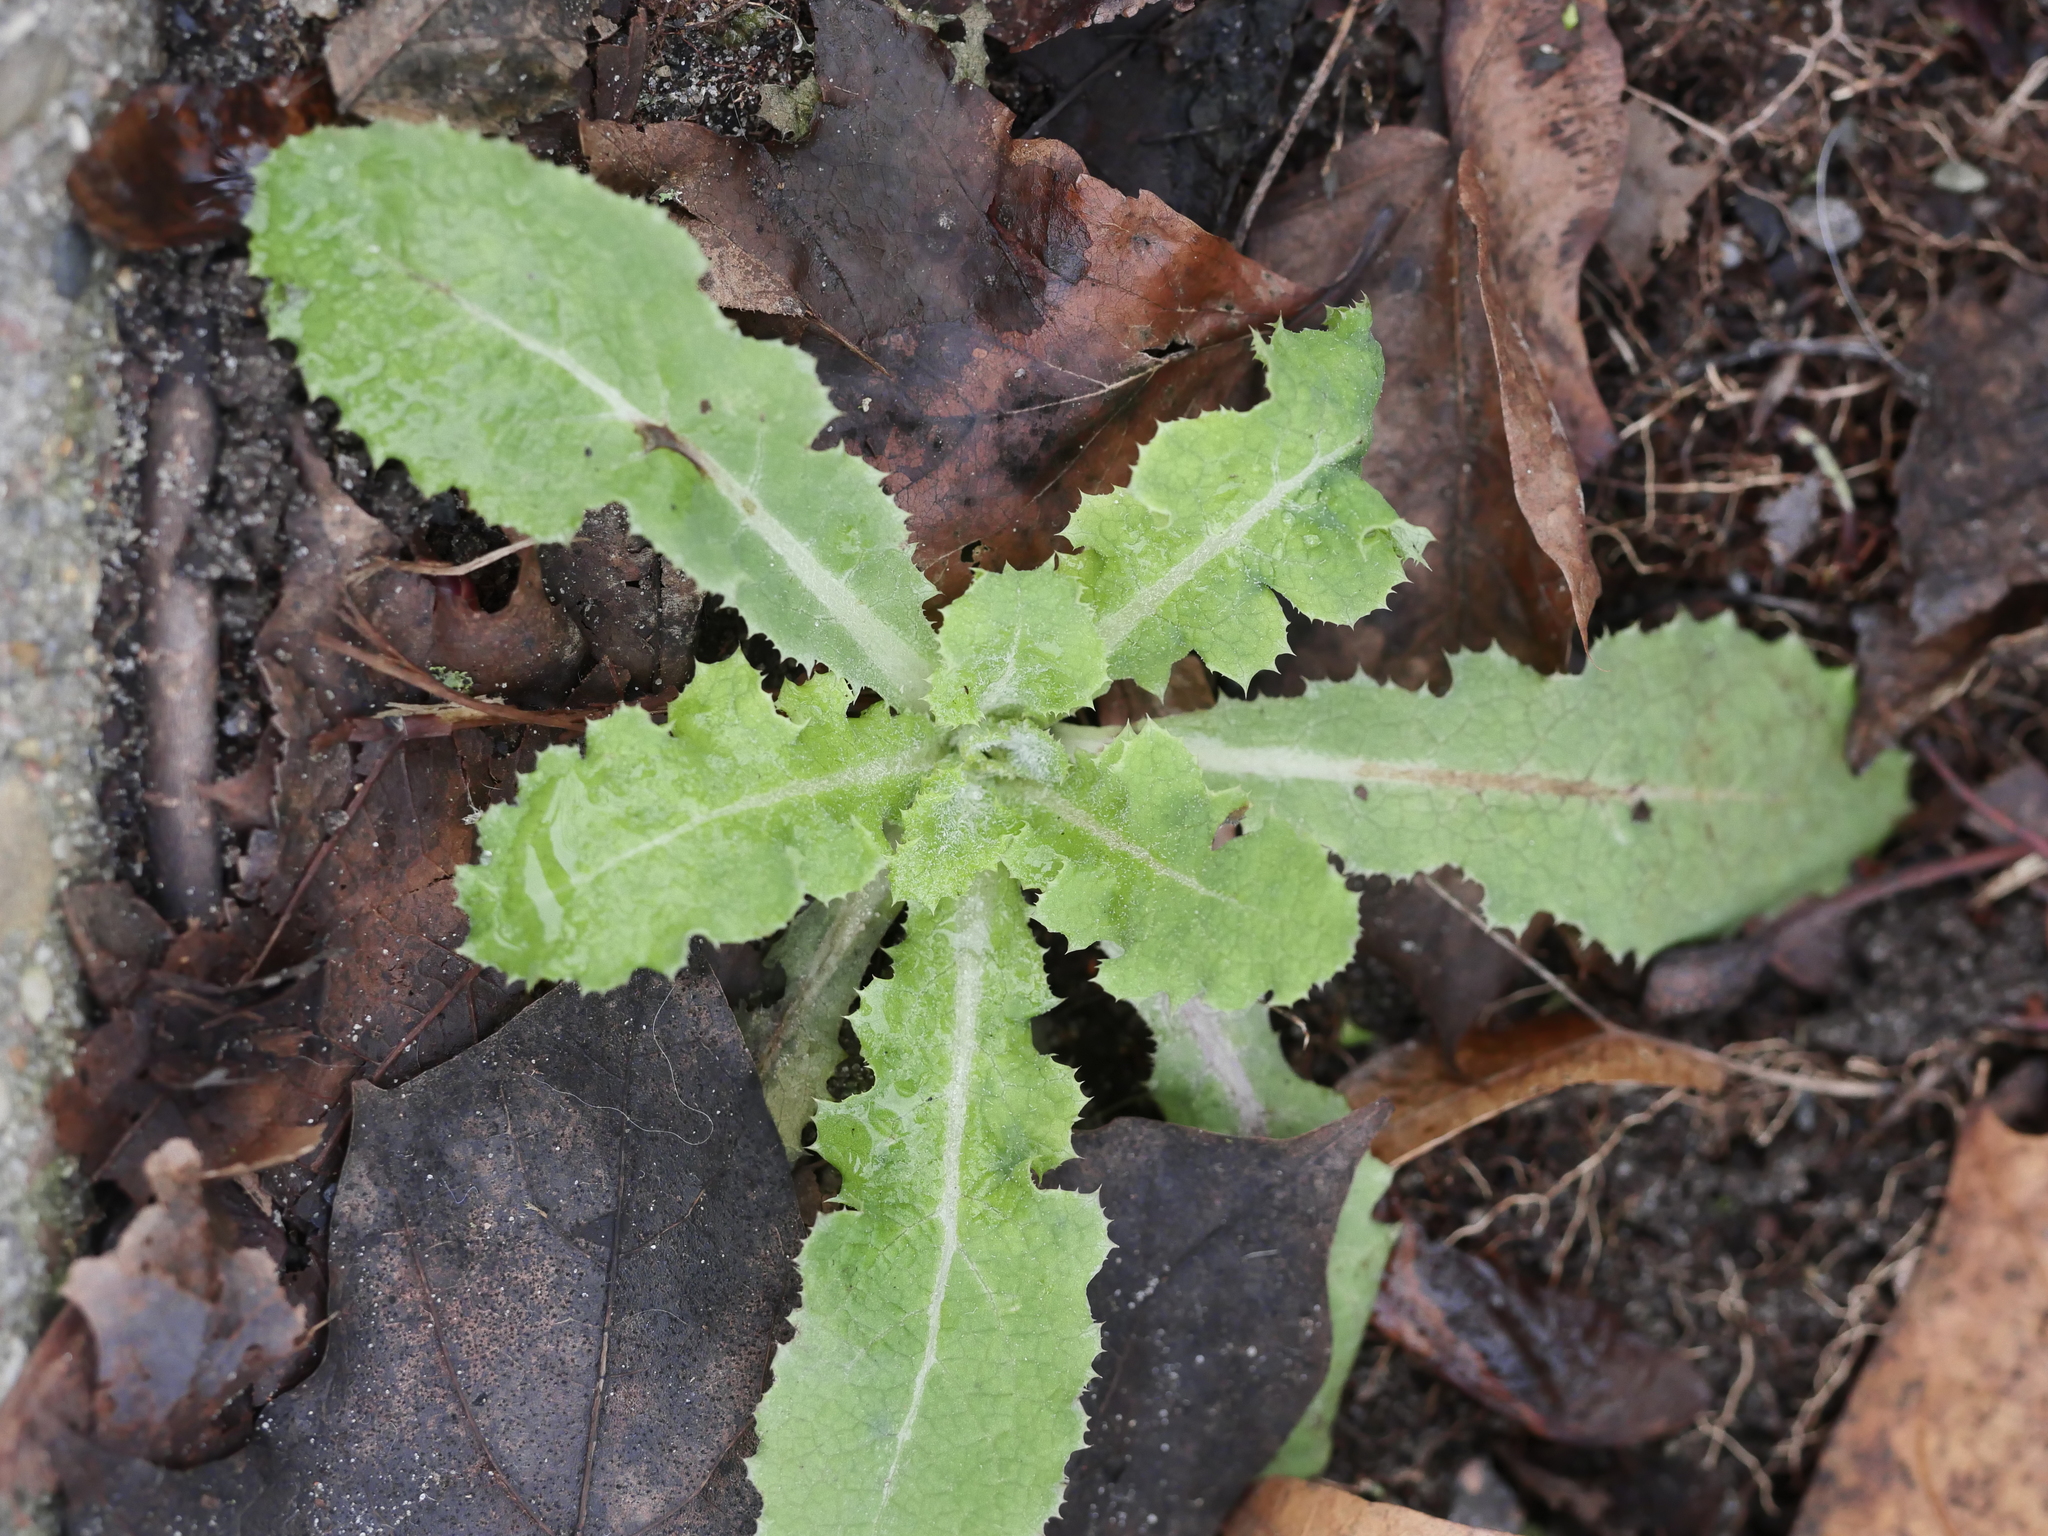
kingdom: Plantae
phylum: Tracheophyta
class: Magnoliopsida
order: Asterales
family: Asteraceae
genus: Sonchus
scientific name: Sonchus asper
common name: Prickly sow-thistle
